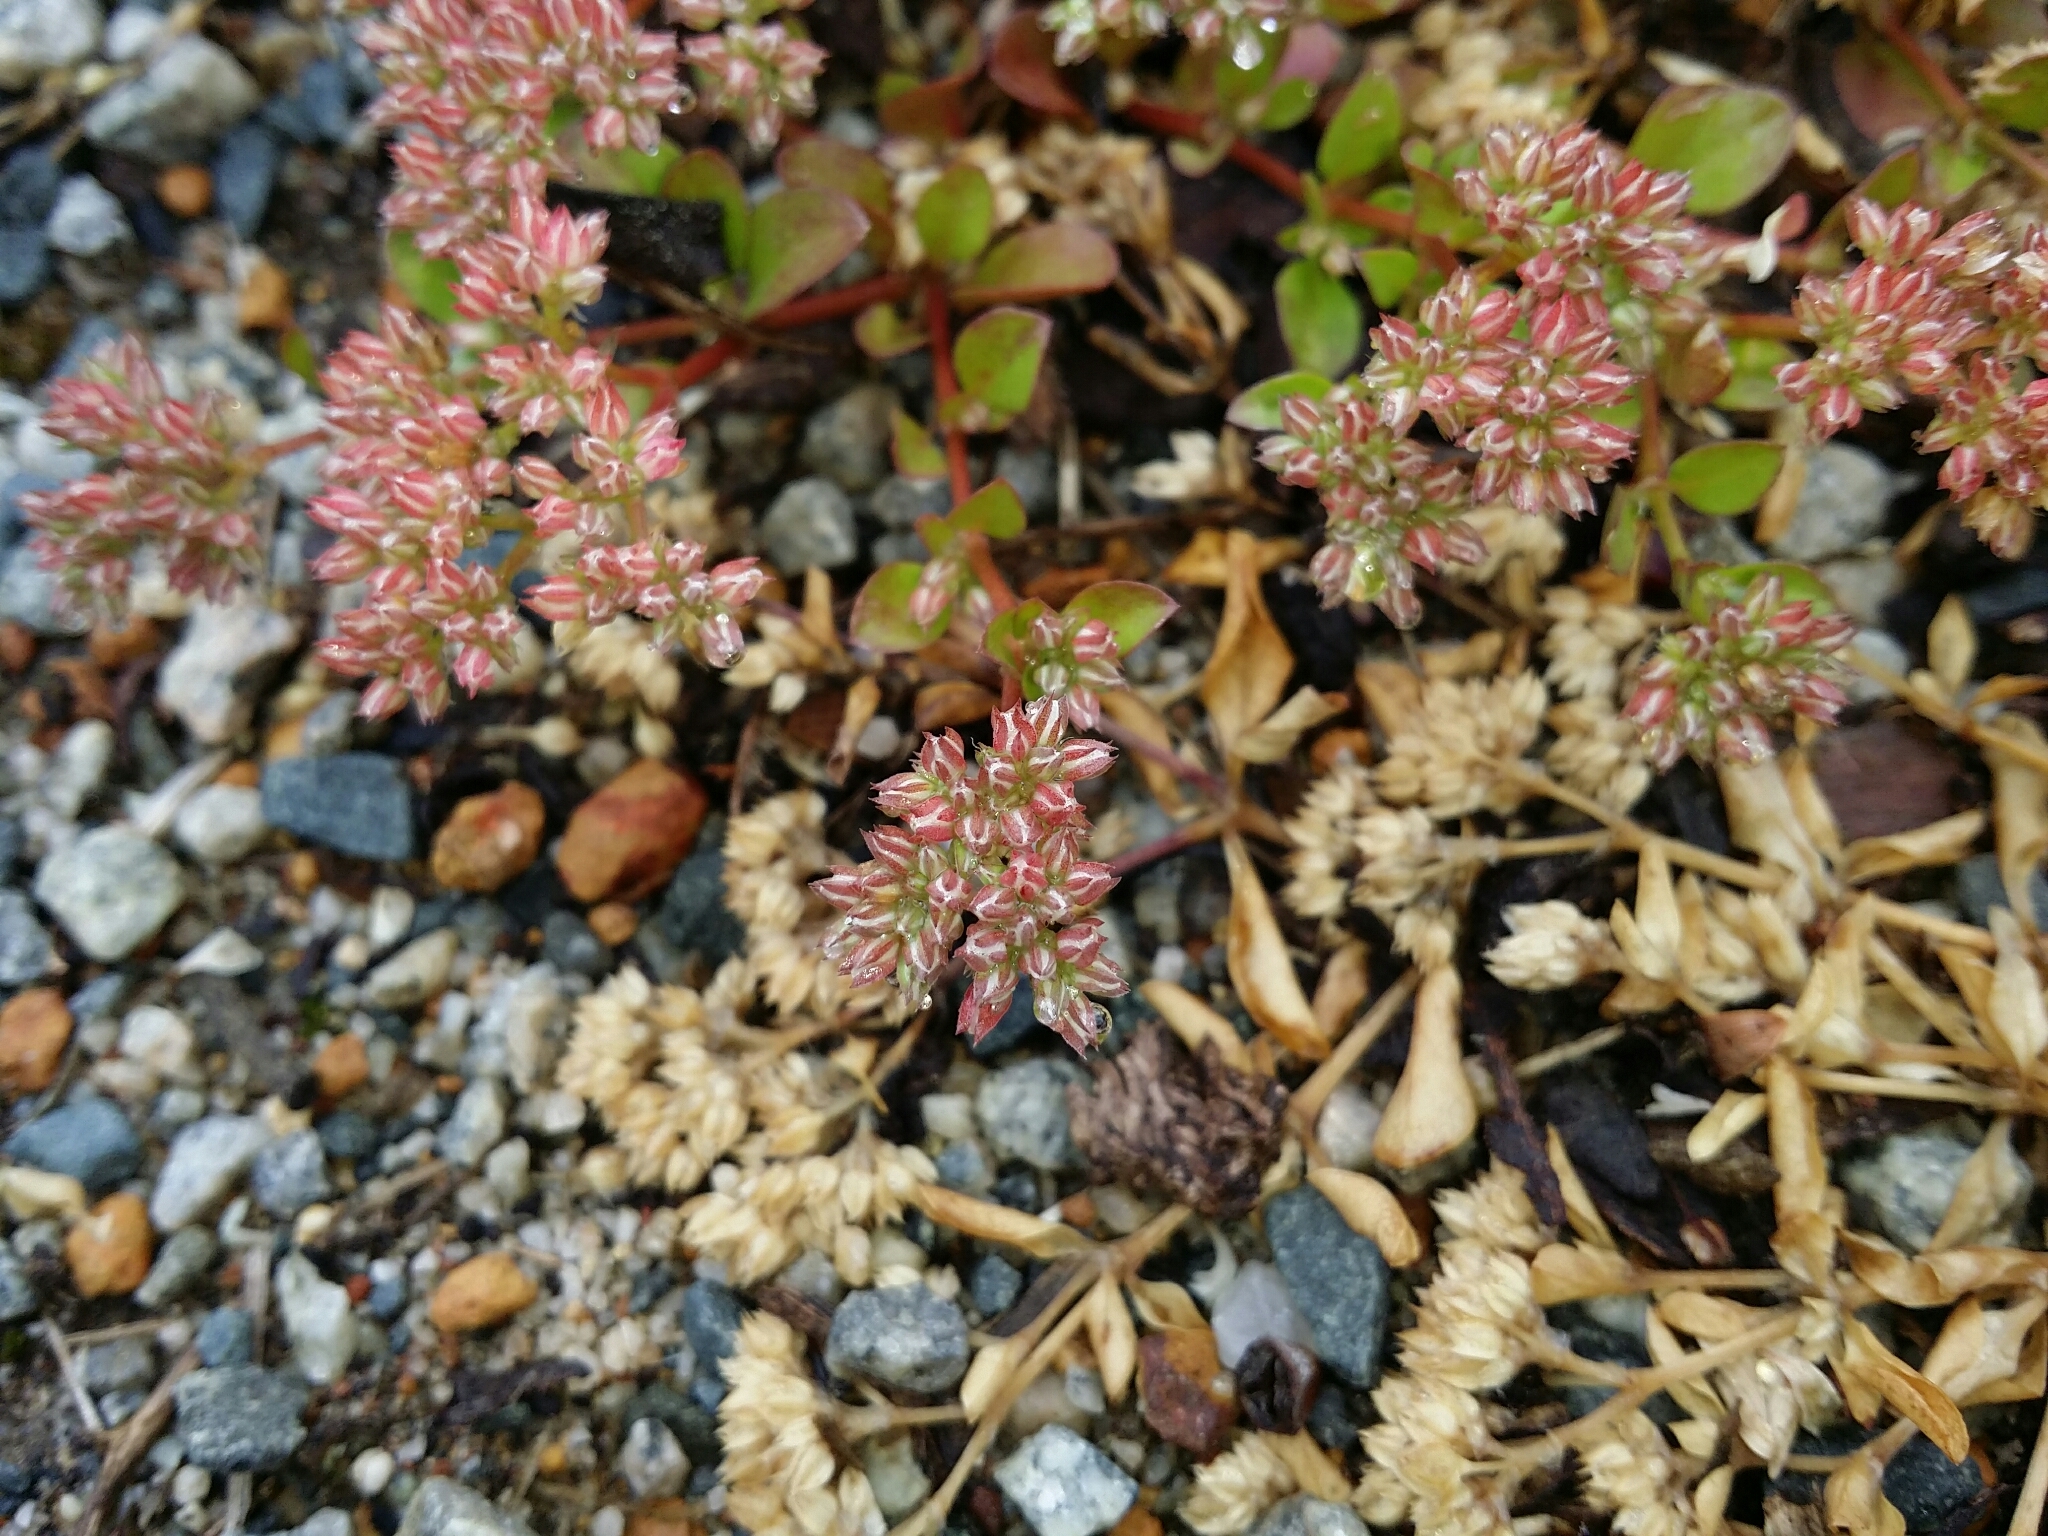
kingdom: Plantae
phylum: Tracheophyta
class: Magnoliopsida
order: Caryophyllales
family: Caryophyllaceae
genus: Polycarpon
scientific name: Polycarpon tetraphyllum
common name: Four-leaved all-seed
